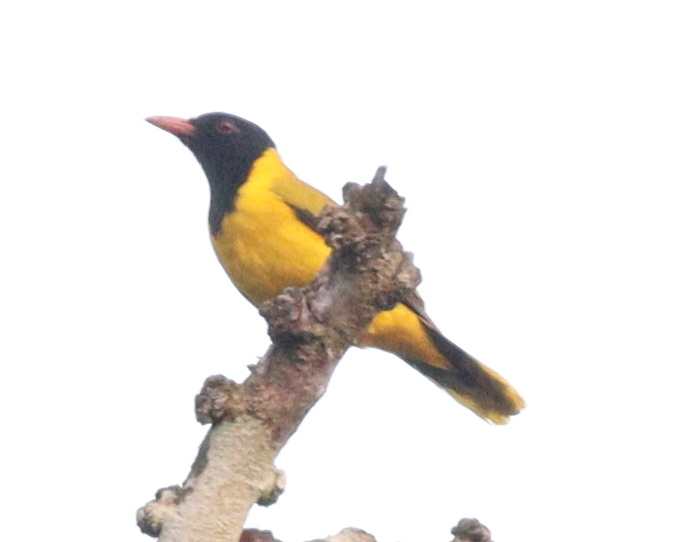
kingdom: Animalia
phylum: Chordata
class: Aves
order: Passeriformes
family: Oriolidae
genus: Oriolus
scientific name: Oriolus nigripennis
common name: Black-winged oriole
